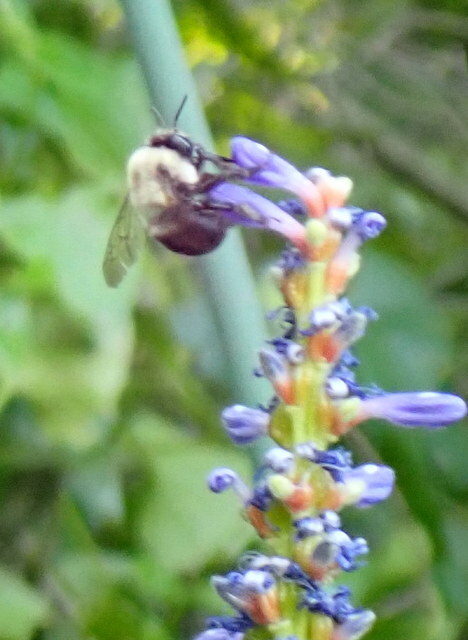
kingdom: Animalia
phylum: Arthropoda
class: Insecta
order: Hymenoptera
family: Apidae
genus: Anthophora
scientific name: Anthophora abrupta
